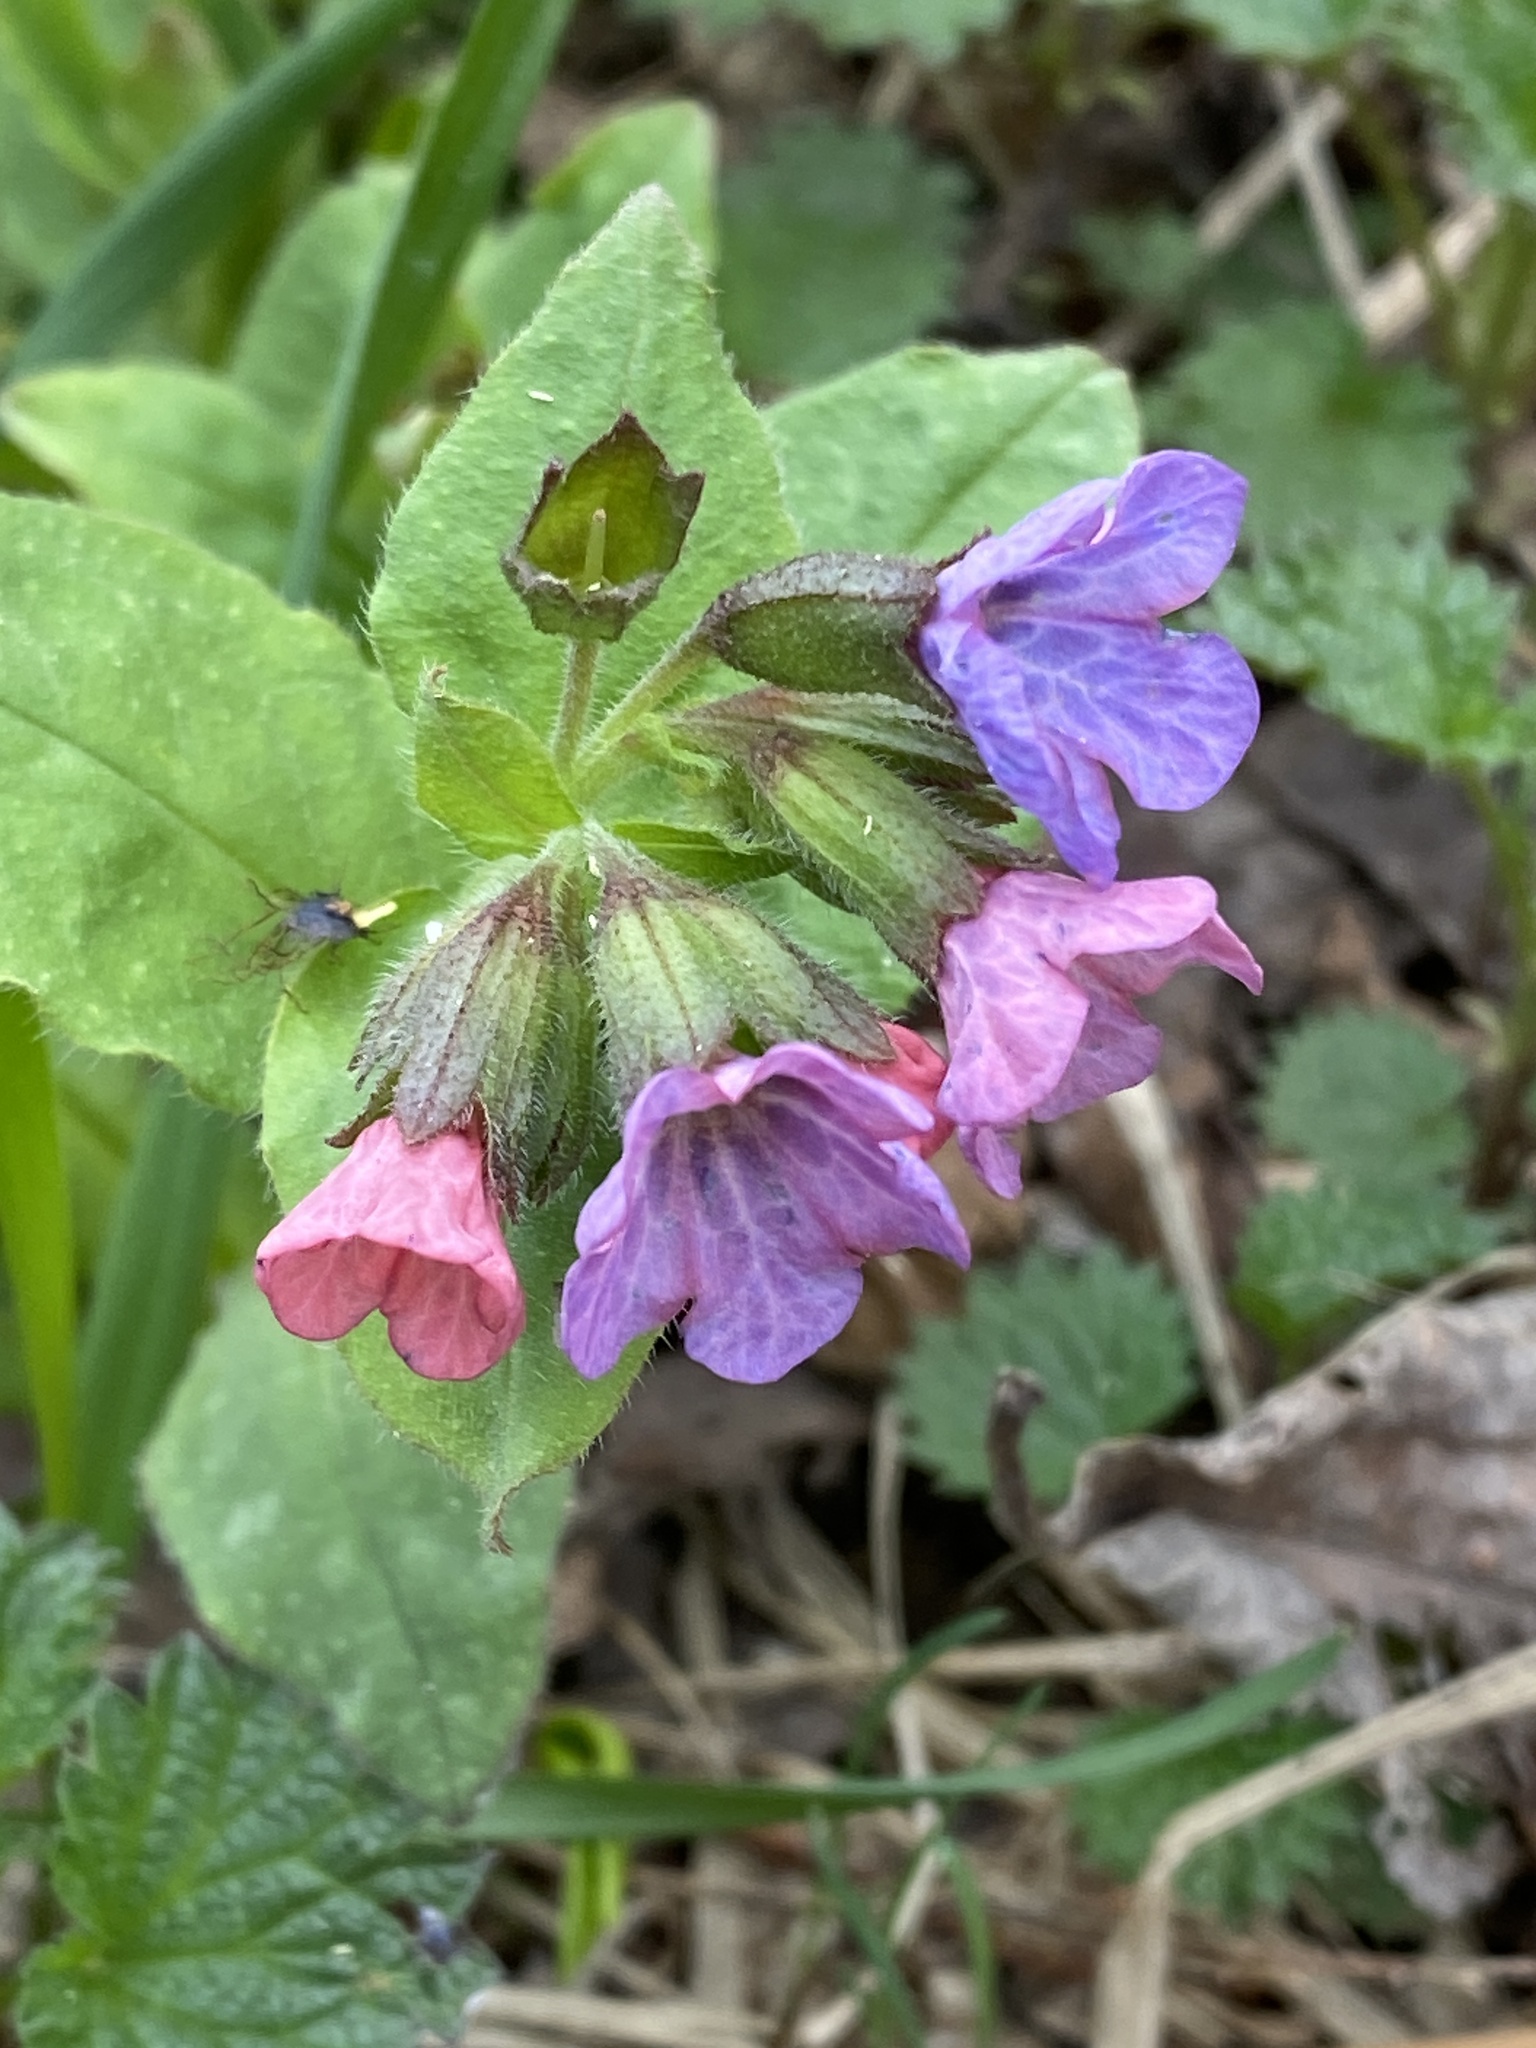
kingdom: Plantae
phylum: Tracheophyta
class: Magnoliopsida
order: Boraginales
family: Boraginaceae
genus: Pulmonaria
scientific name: Pulmonaria obscura
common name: Suffolk lungwort
